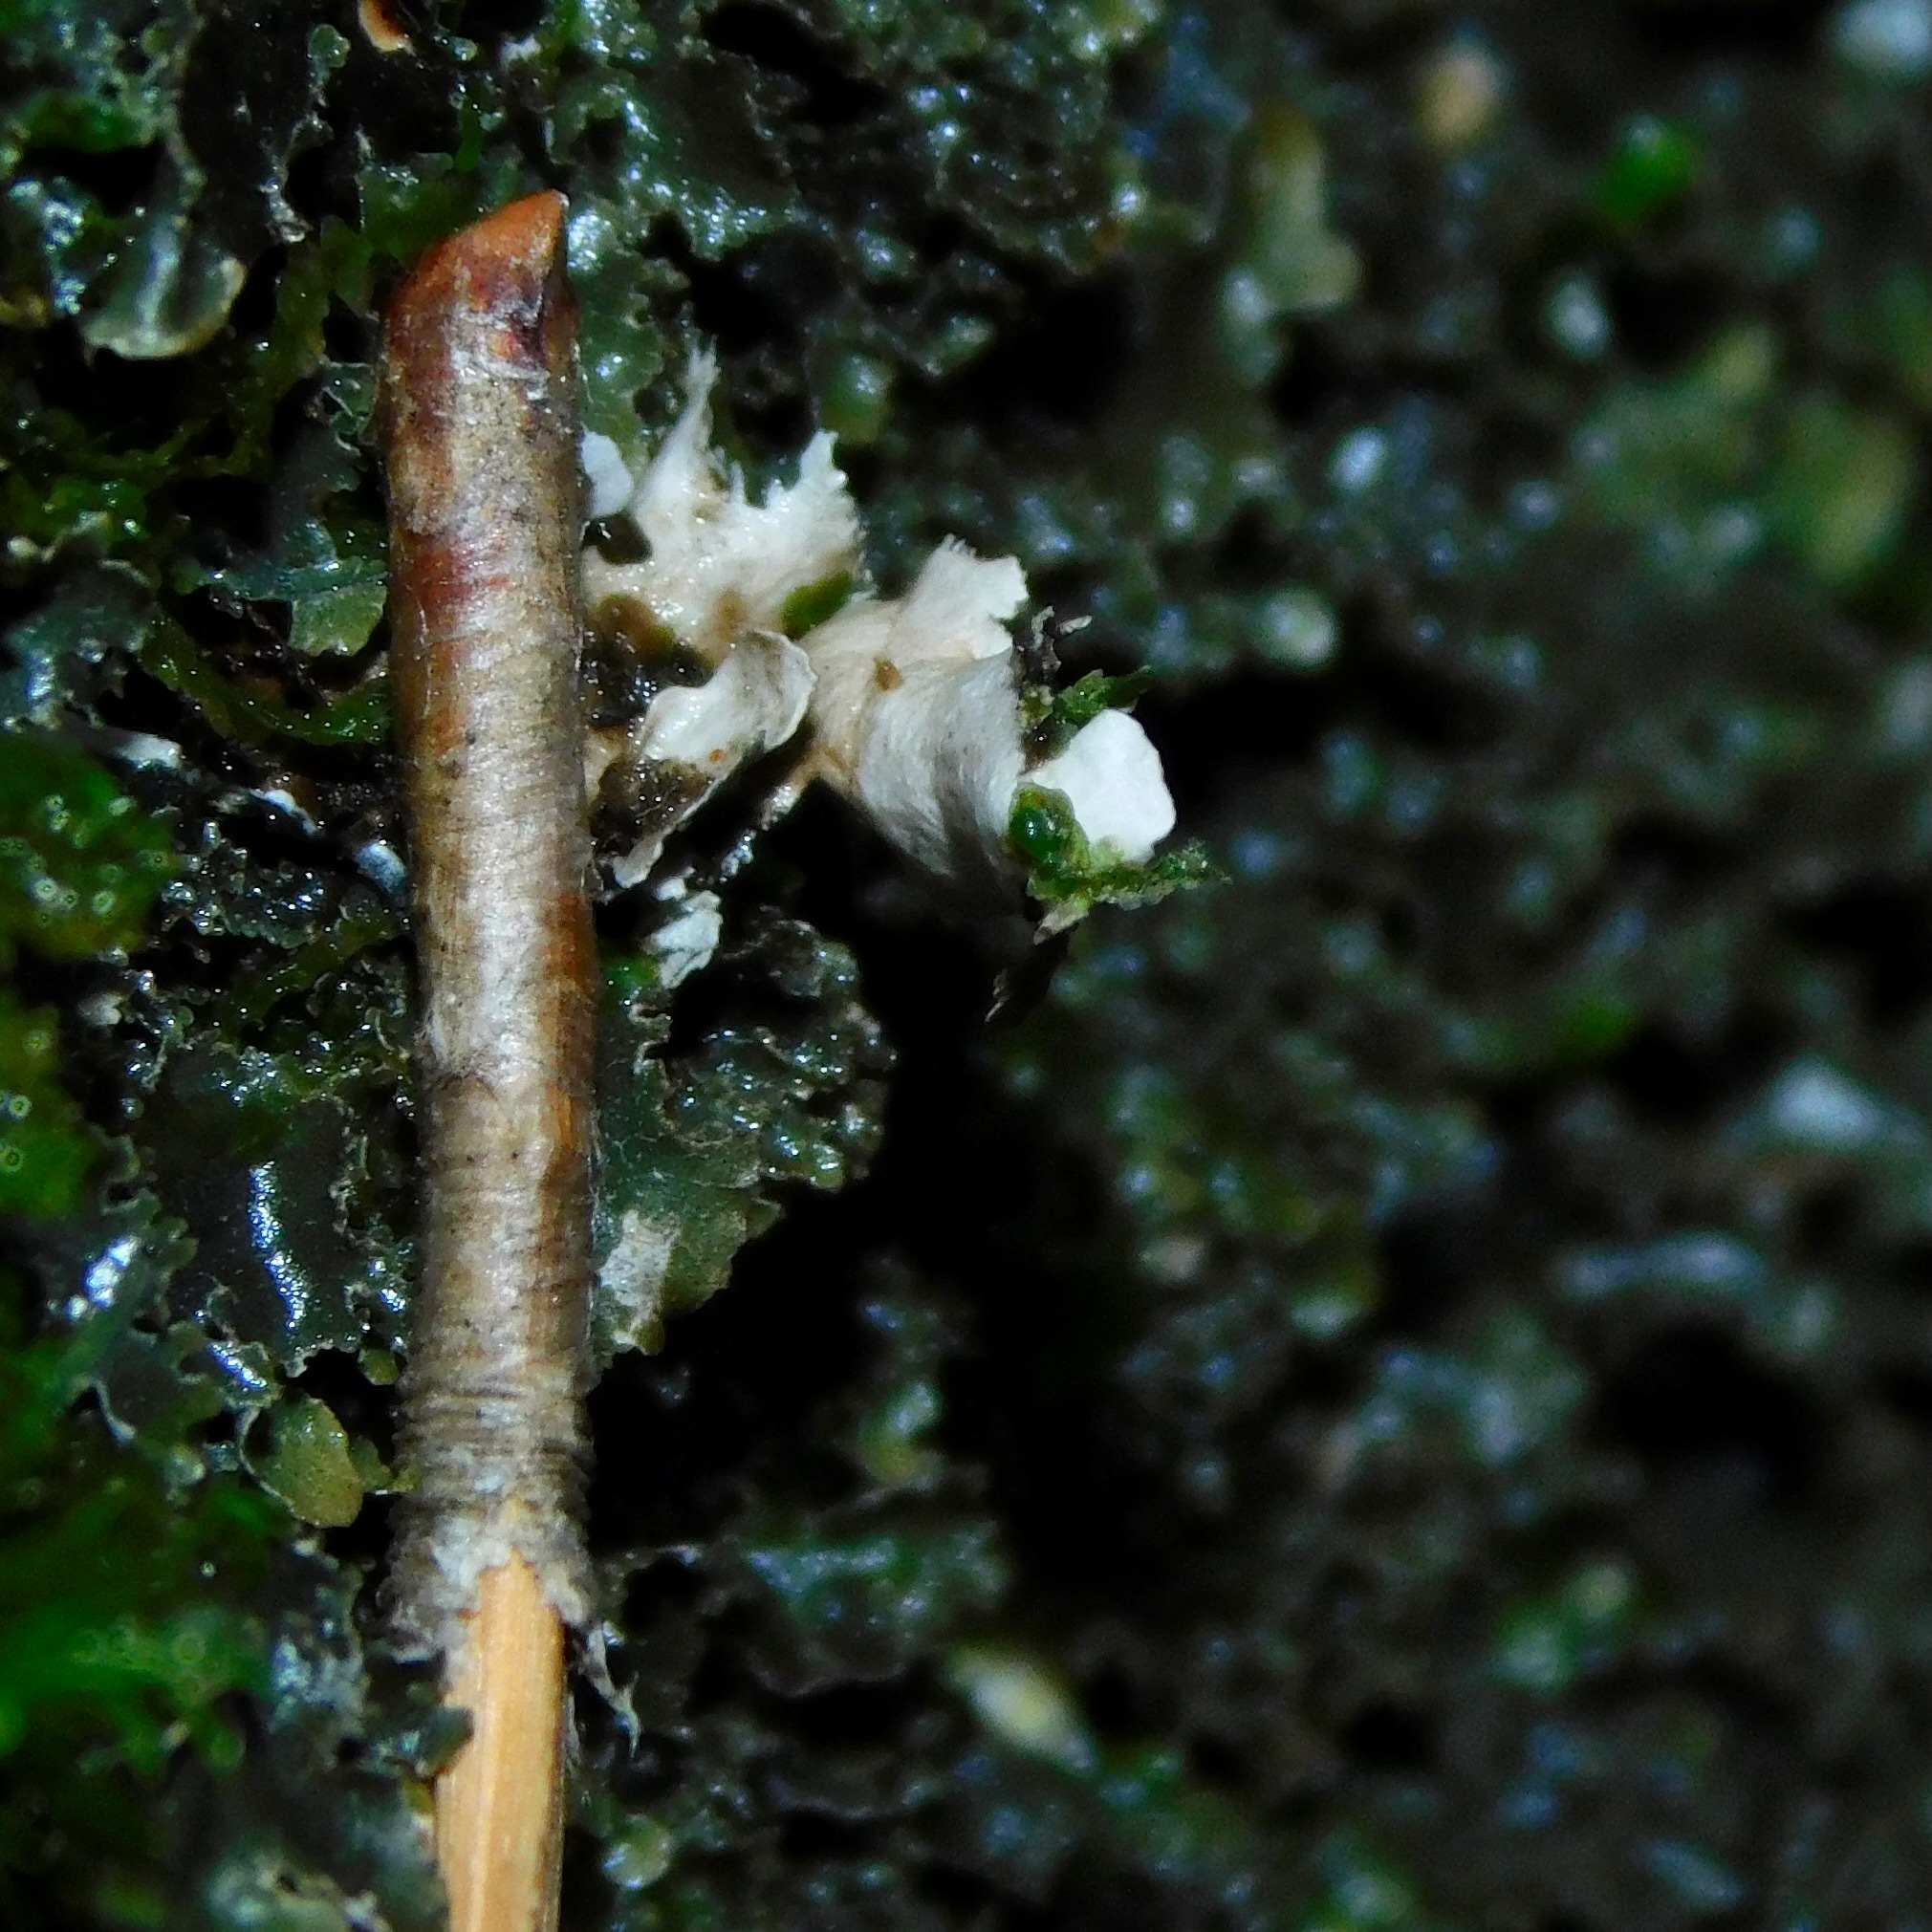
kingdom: Fungi
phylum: Ascomycota
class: Lecanoromycetes
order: Peltigerales
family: Lobariaceae
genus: Sticta
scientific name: Sticta carolinensis
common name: Carolina moon lichen
